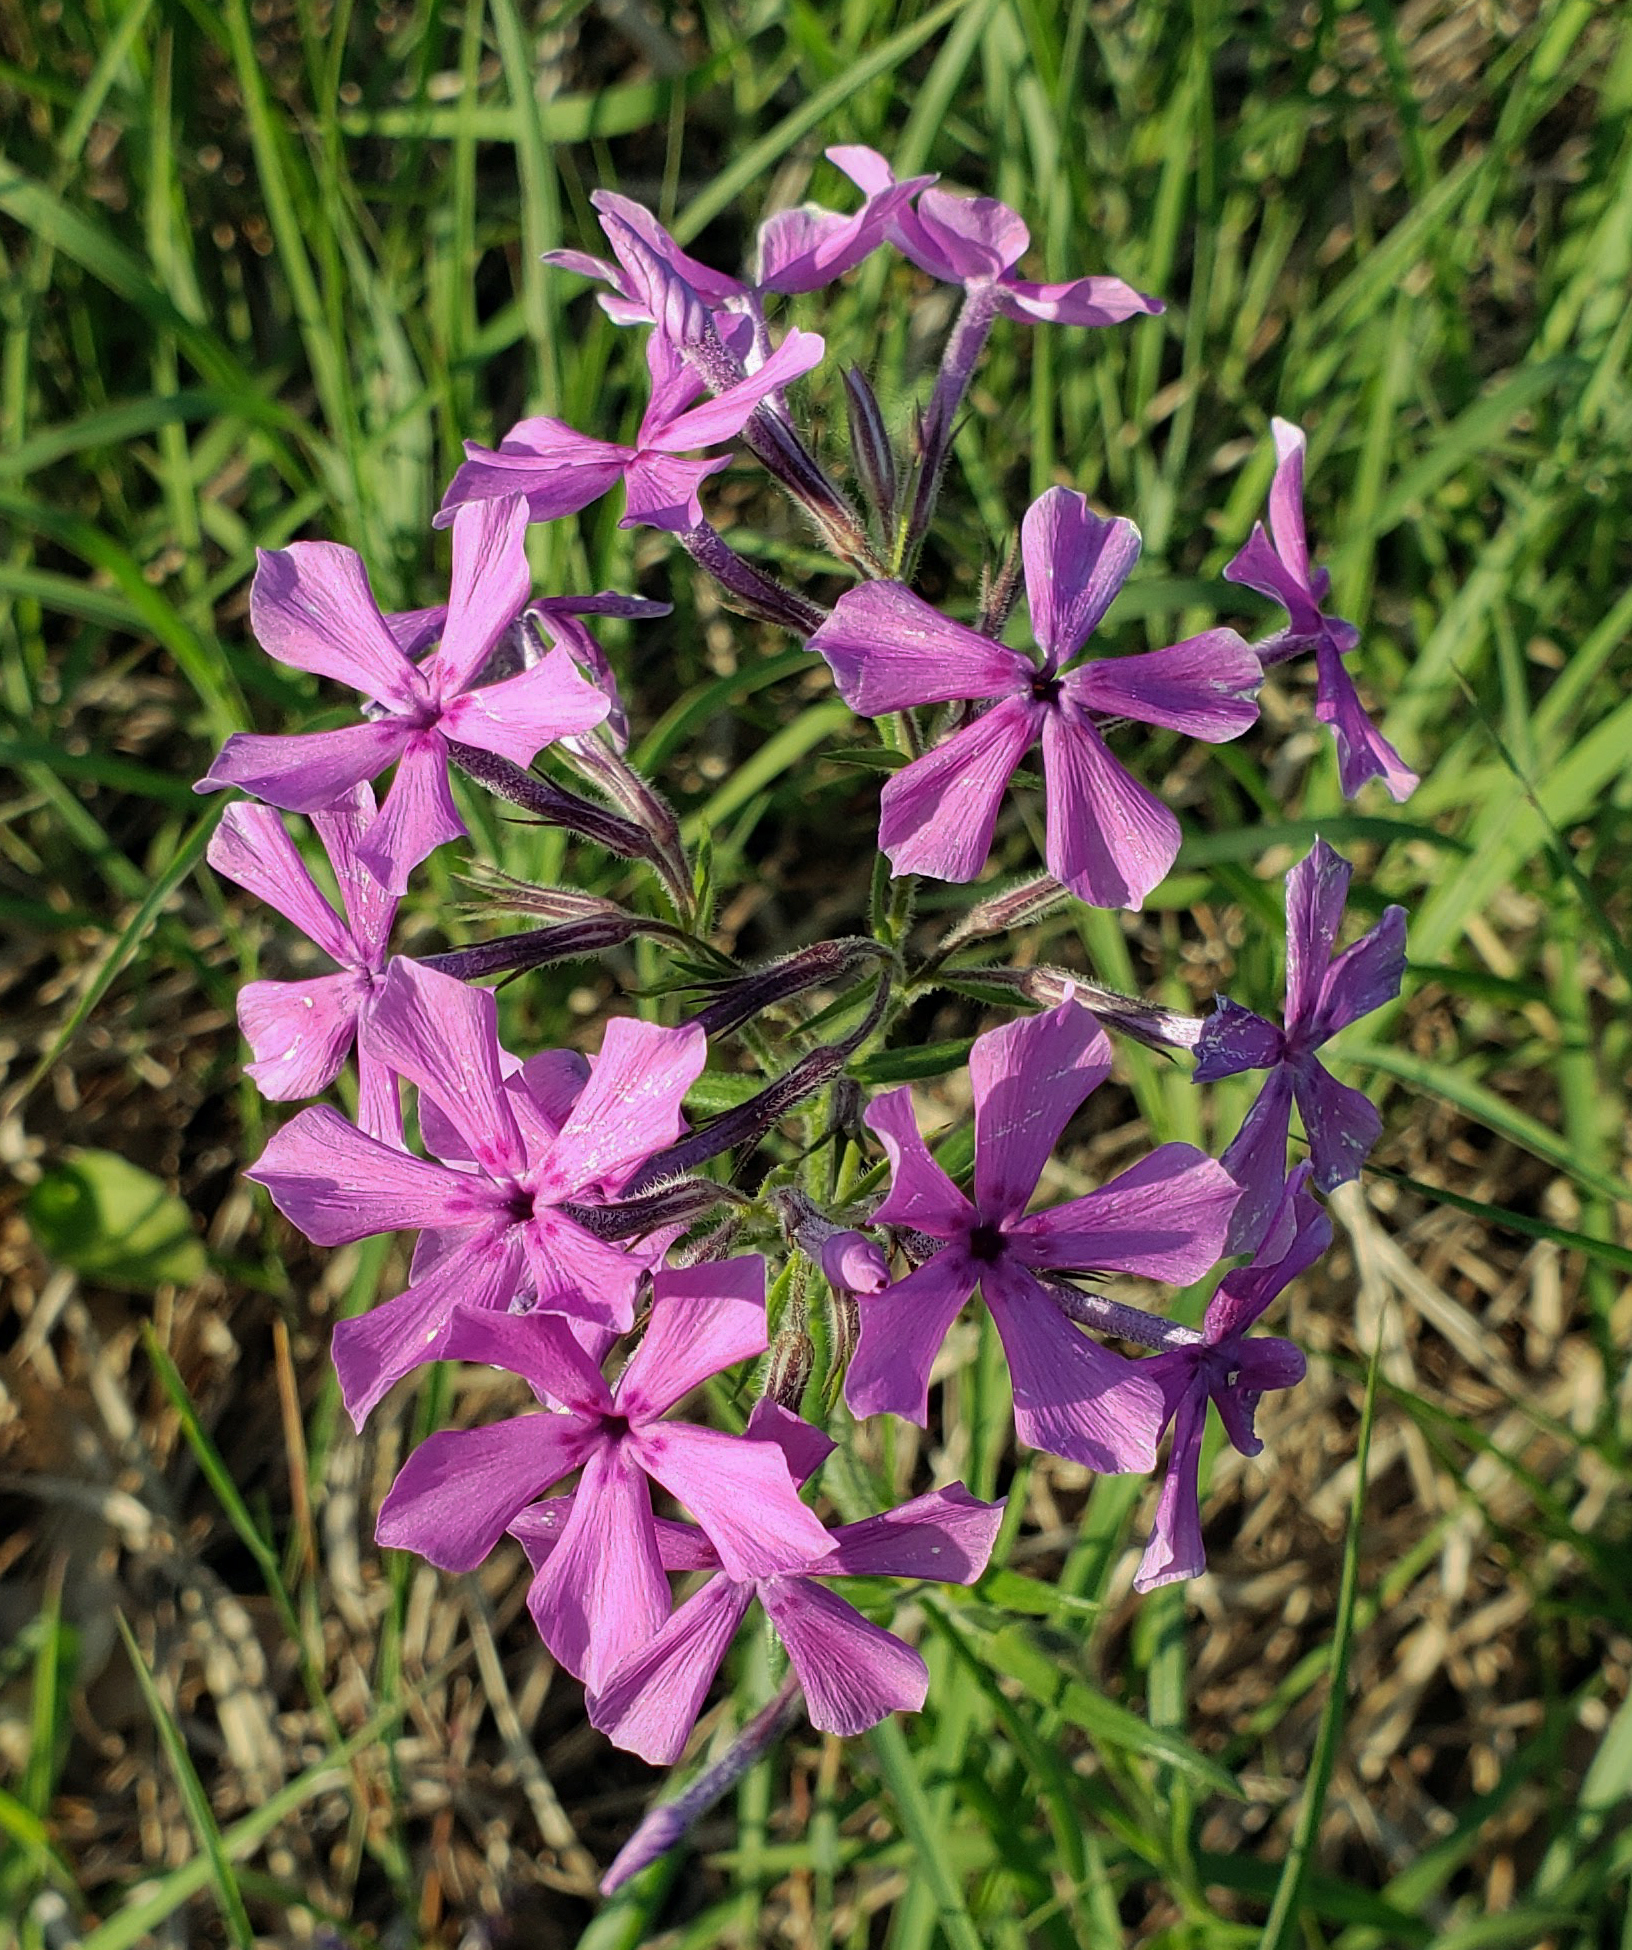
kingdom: Plantae
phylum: Tracheophyta
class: Magnoliopsida
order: Ericales
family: Polemoniaceae
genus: Phlox
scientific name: Phlox pilosa
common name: Prairie phlox
